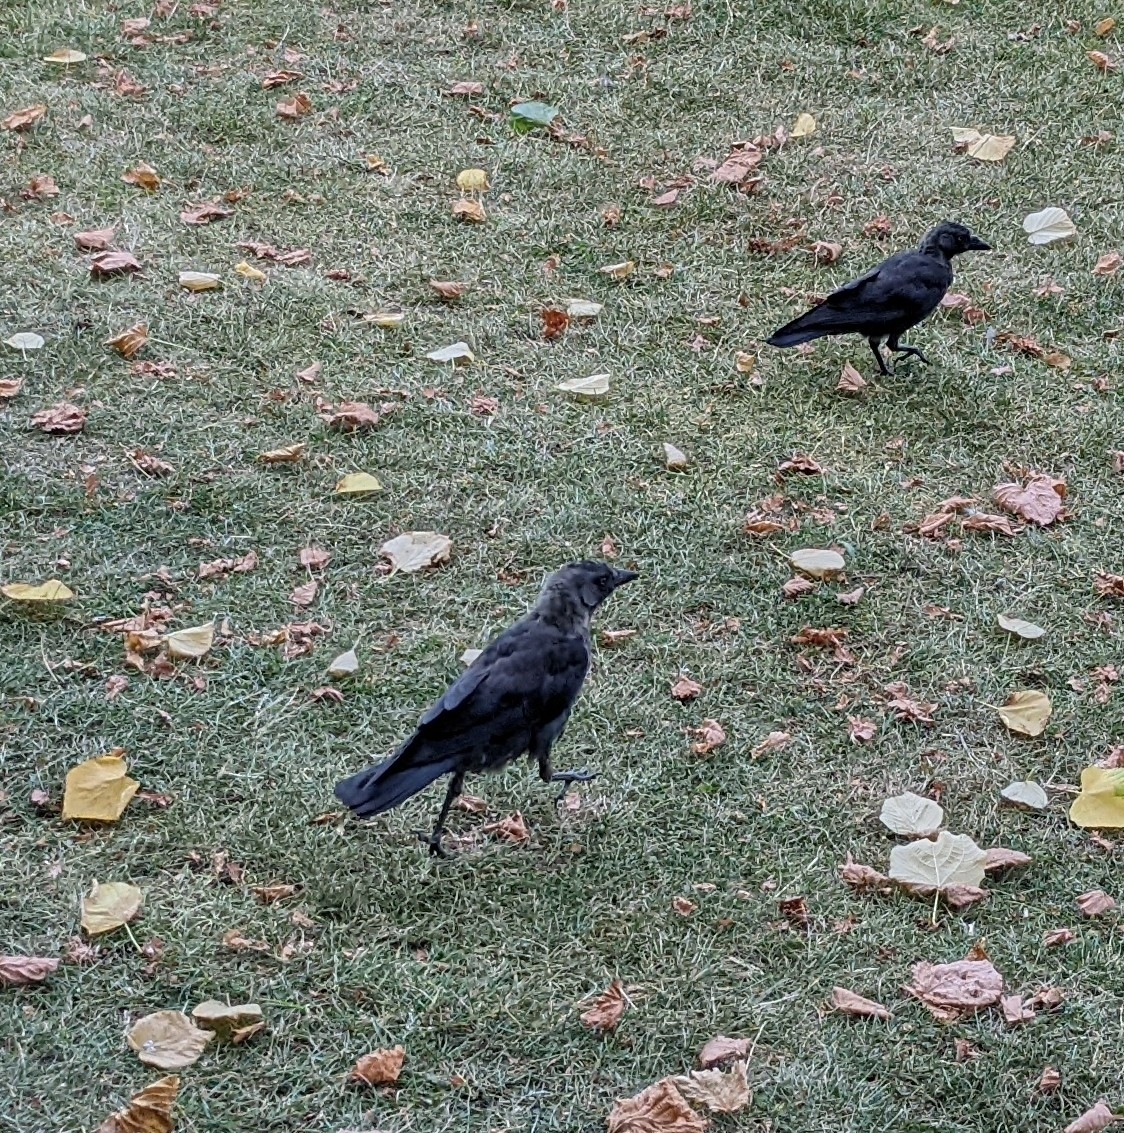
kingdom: Animalia
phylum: Chordata
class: Aves
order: Passeriformes
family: Corvidae
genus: Coloeus
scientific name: Coloeus monedula
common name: Western jackdaw
